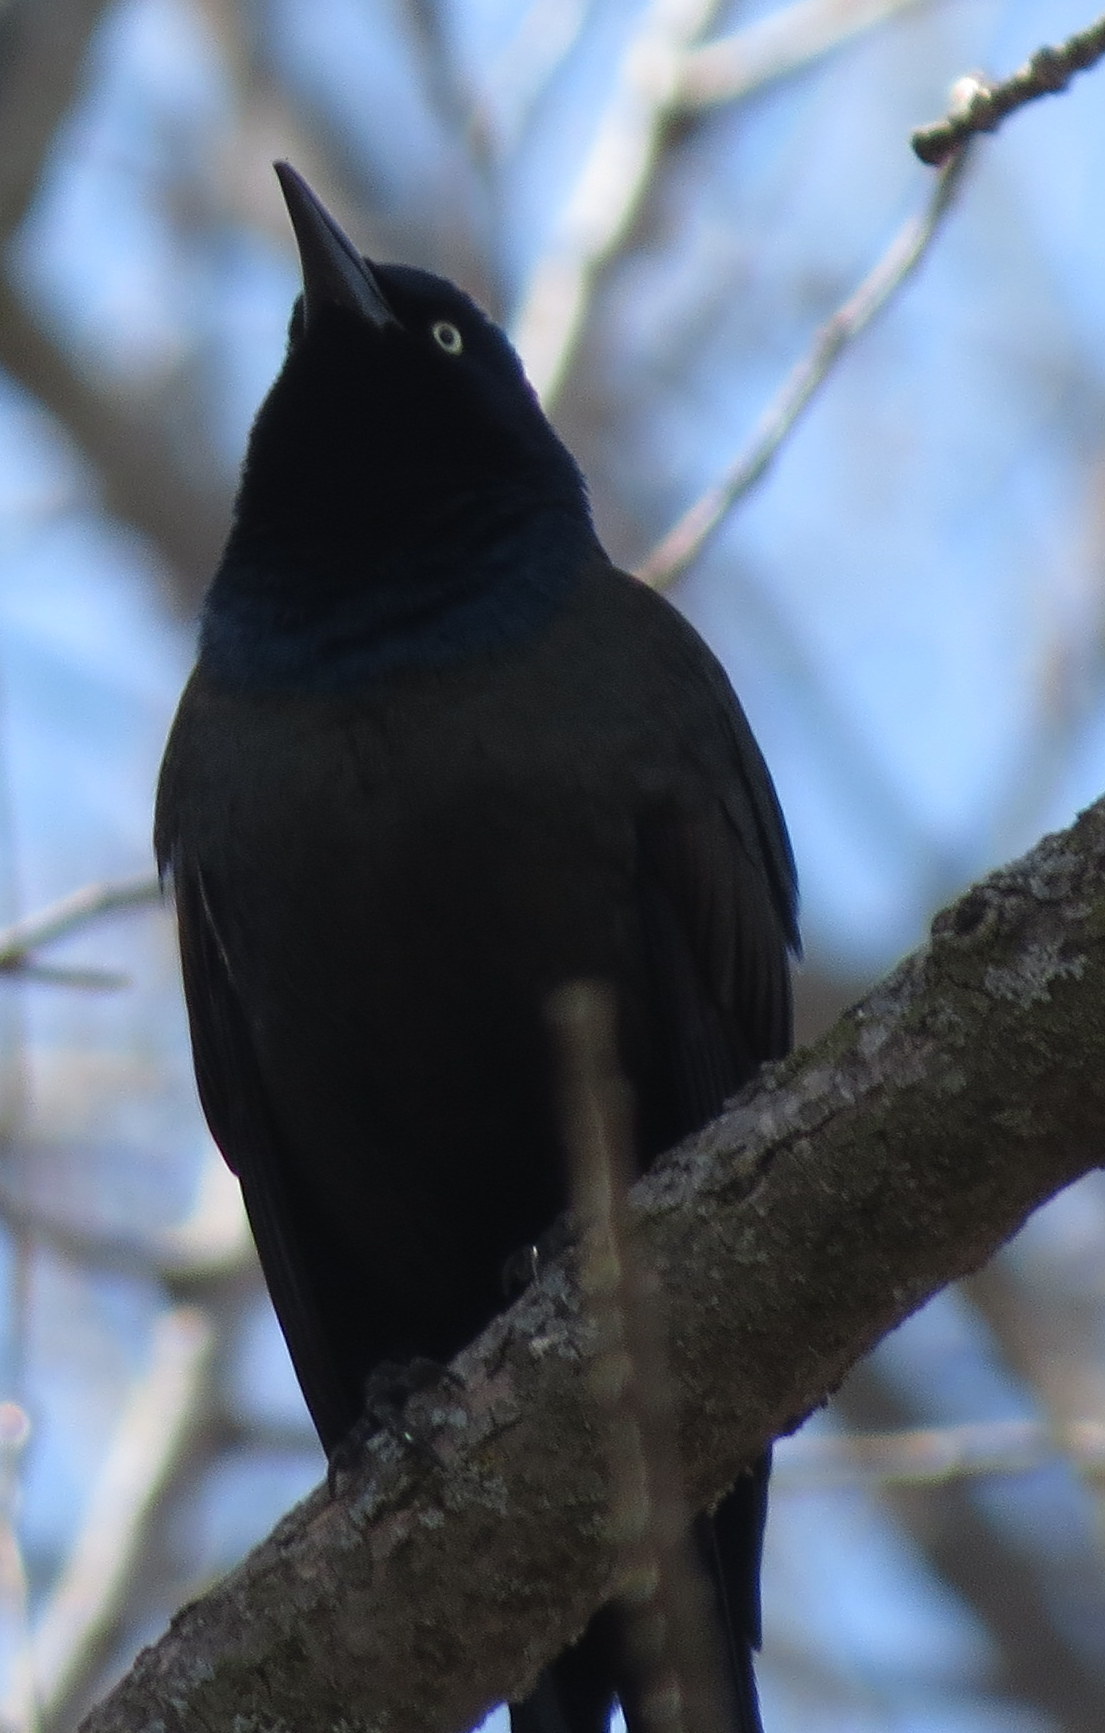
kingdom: Animalia
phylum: Chordata
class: Aves
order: Passeriformes
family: Icteridae
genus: Quiscalus
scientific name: Quiscalus quiscula
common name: Common grackle
